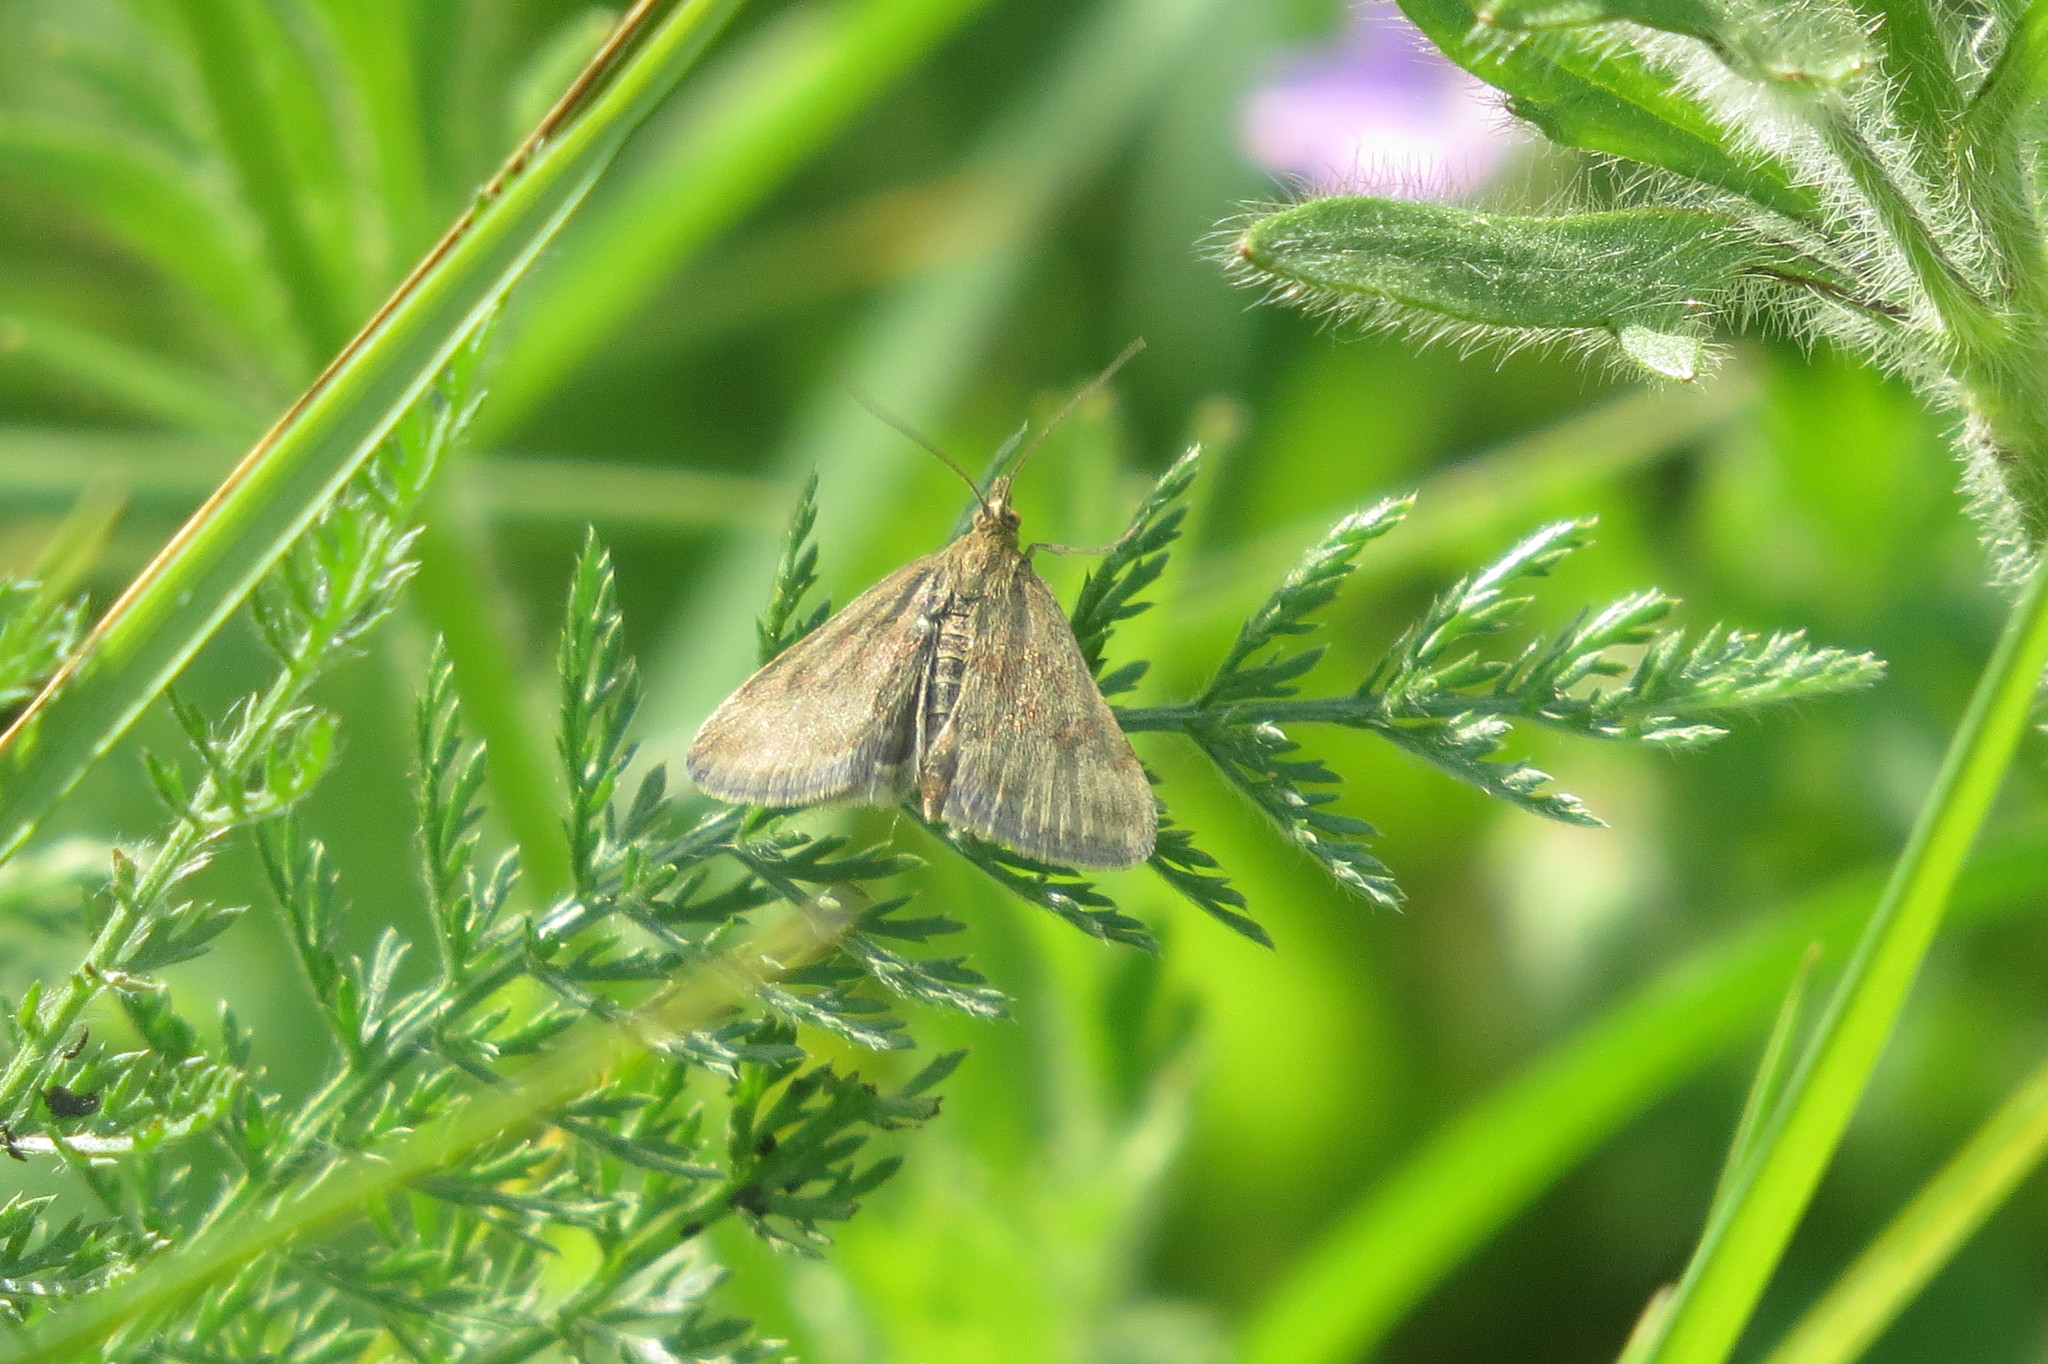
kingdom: Animalia
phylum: Arthropoda
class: Insecta
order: Lepidoptera
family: Crambidae
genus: Pyrausta
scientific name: Pyrausta despicata
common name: Straw-barred pearl
